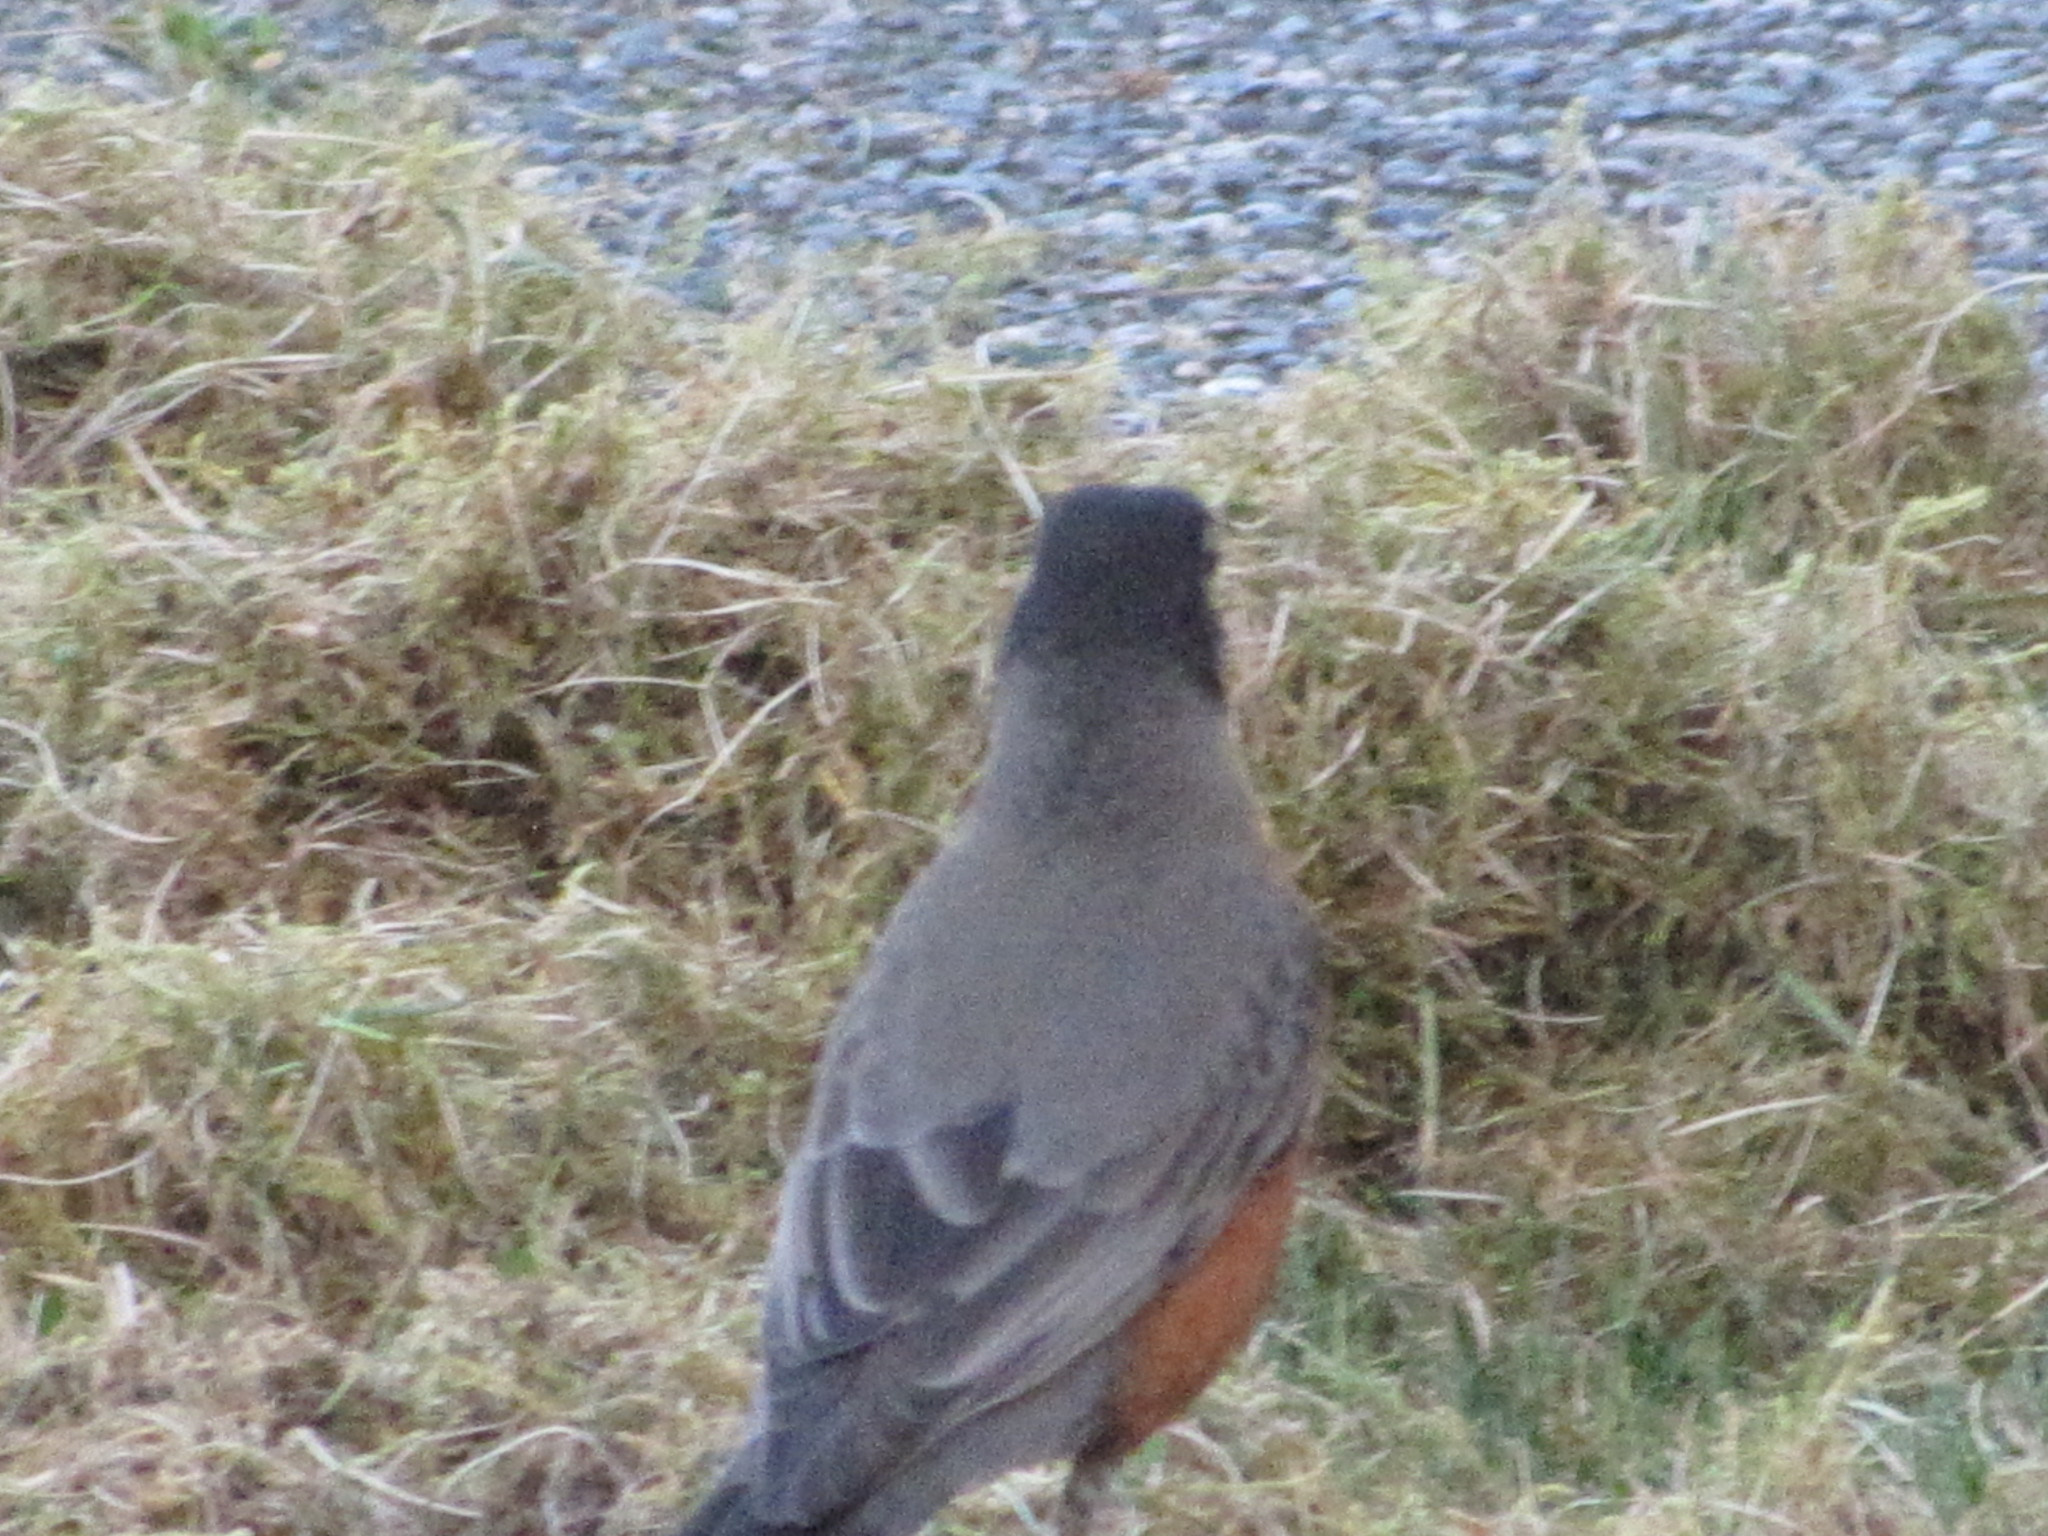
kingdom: Animalia
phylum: Chordata
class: Aves
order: Passeriformes
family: Turdidae
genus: Turdus
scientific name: Turdus migratorius
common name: American robin
